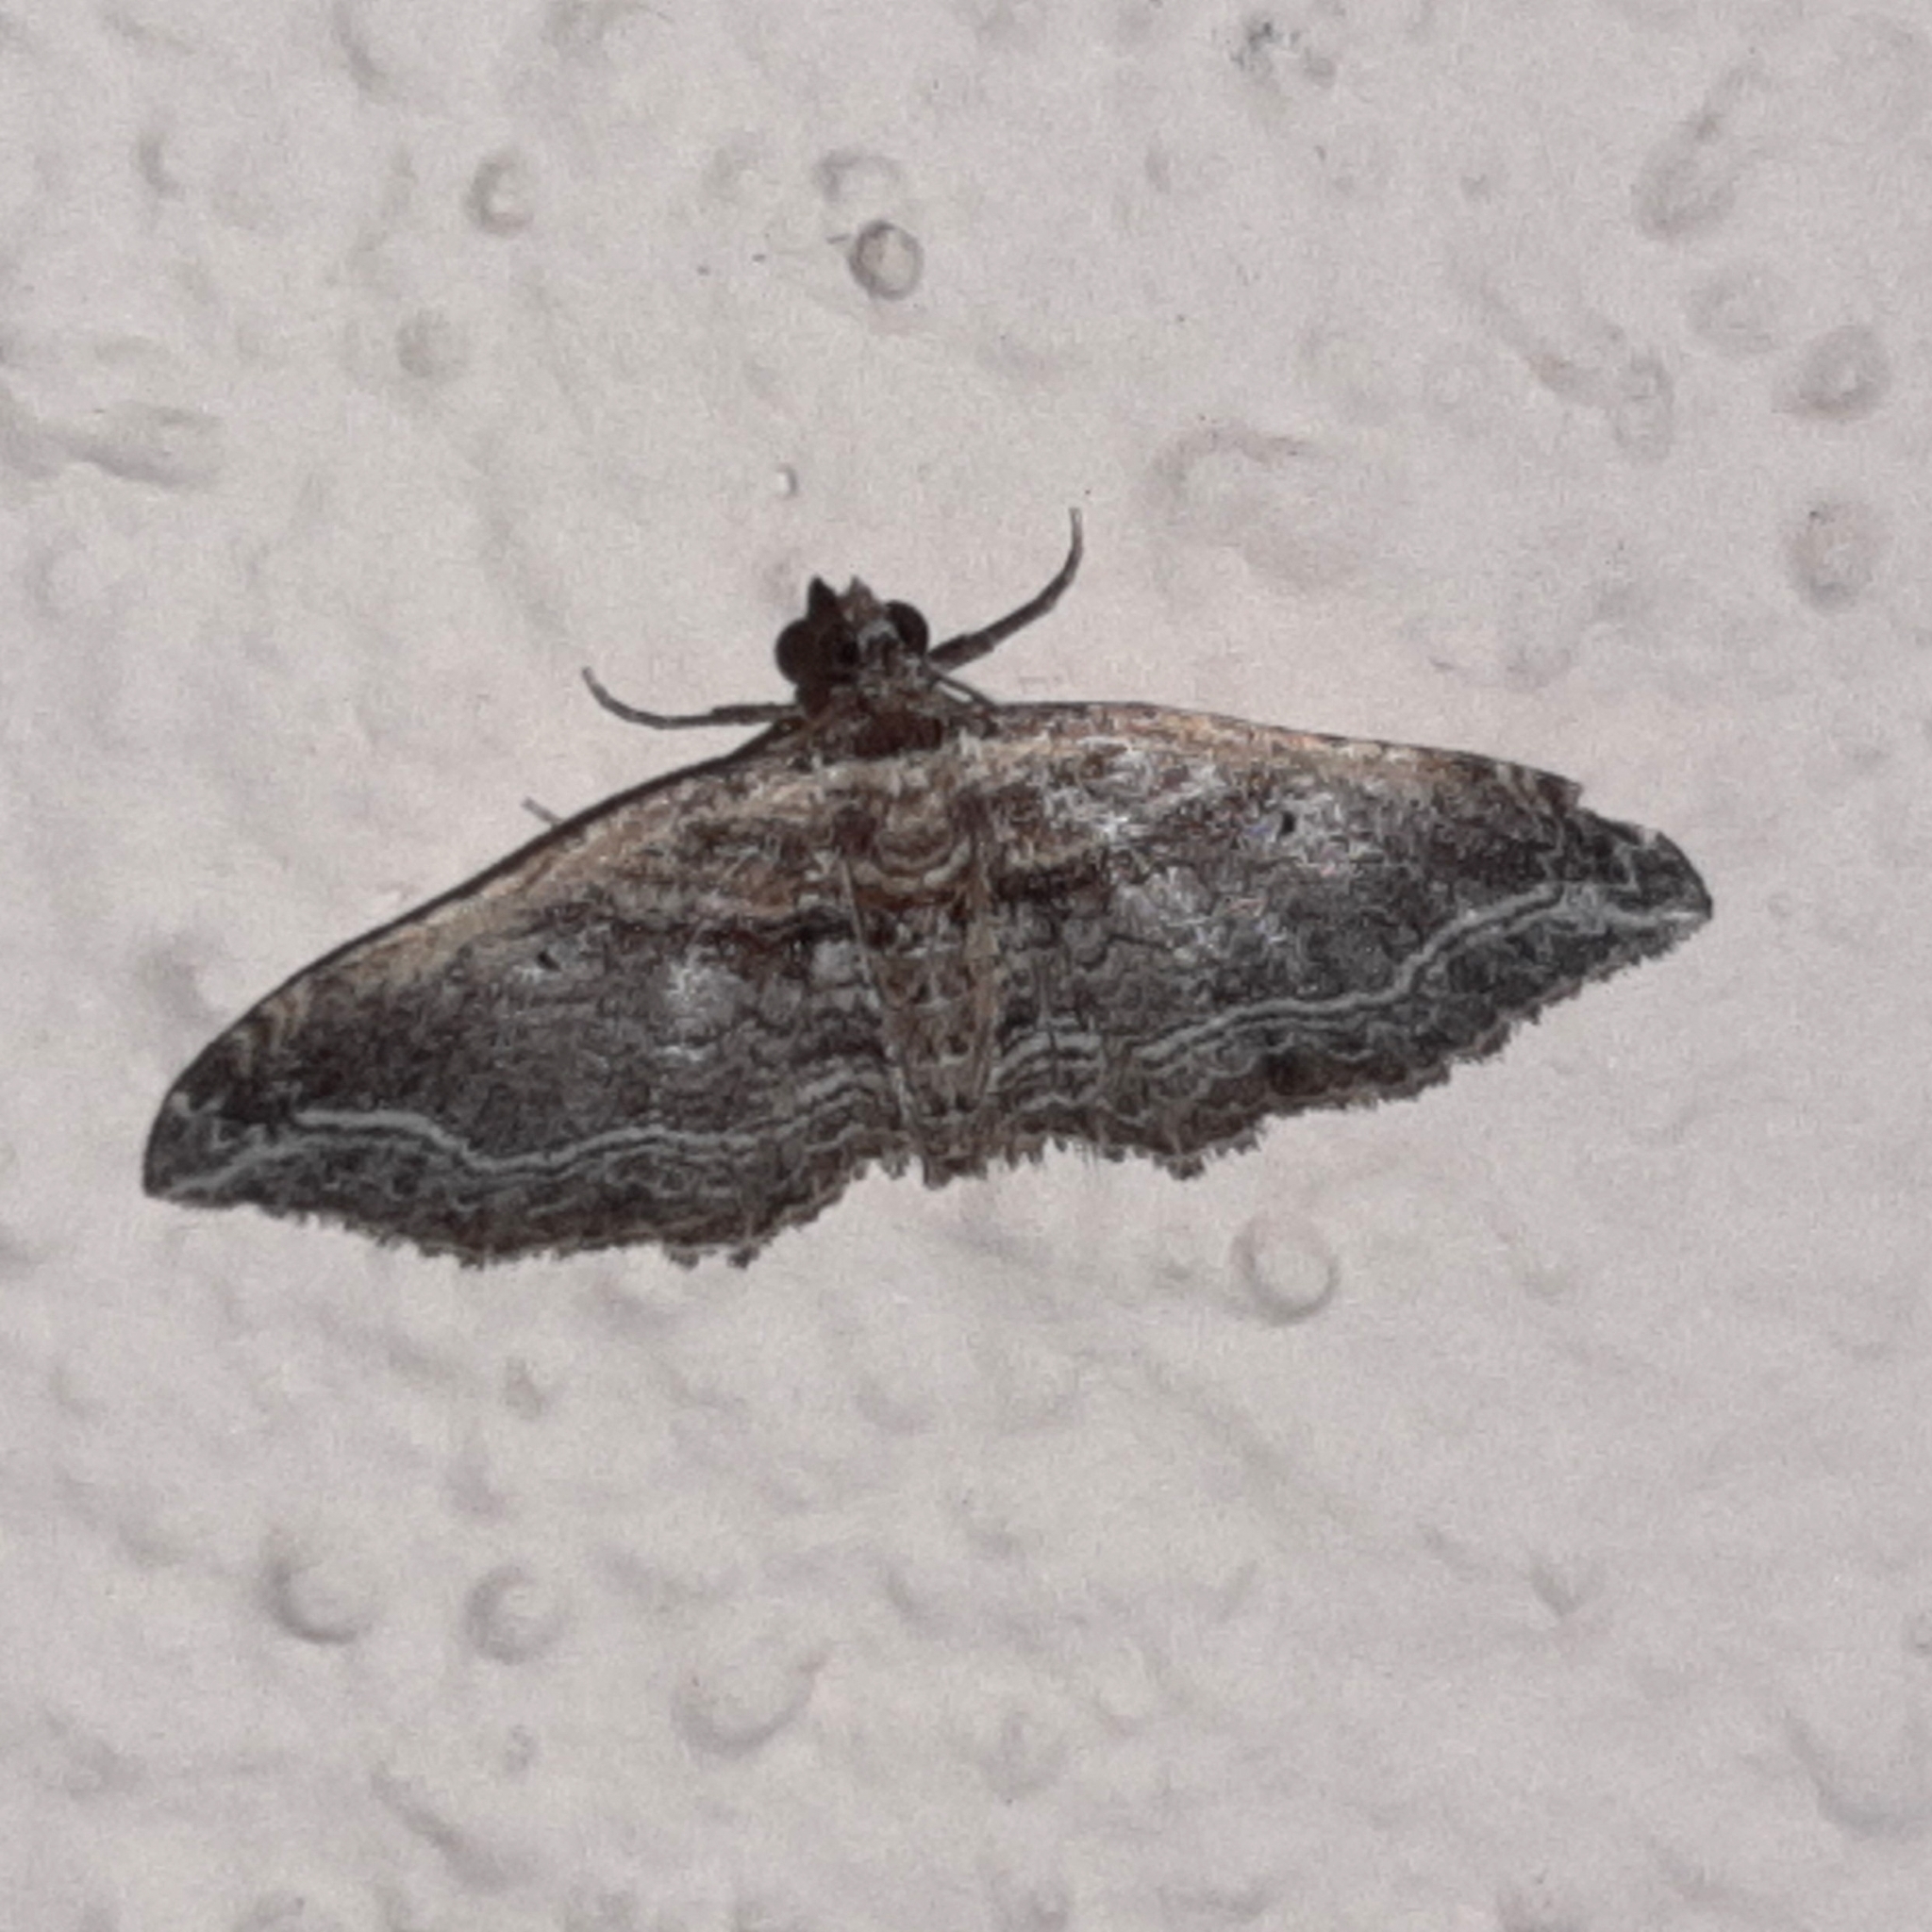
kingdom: Animalia
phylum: Arthropoda
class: Insecta
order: Lepidoptera
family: Geometridae
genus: Orthonama
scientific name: Orthonama effluata
